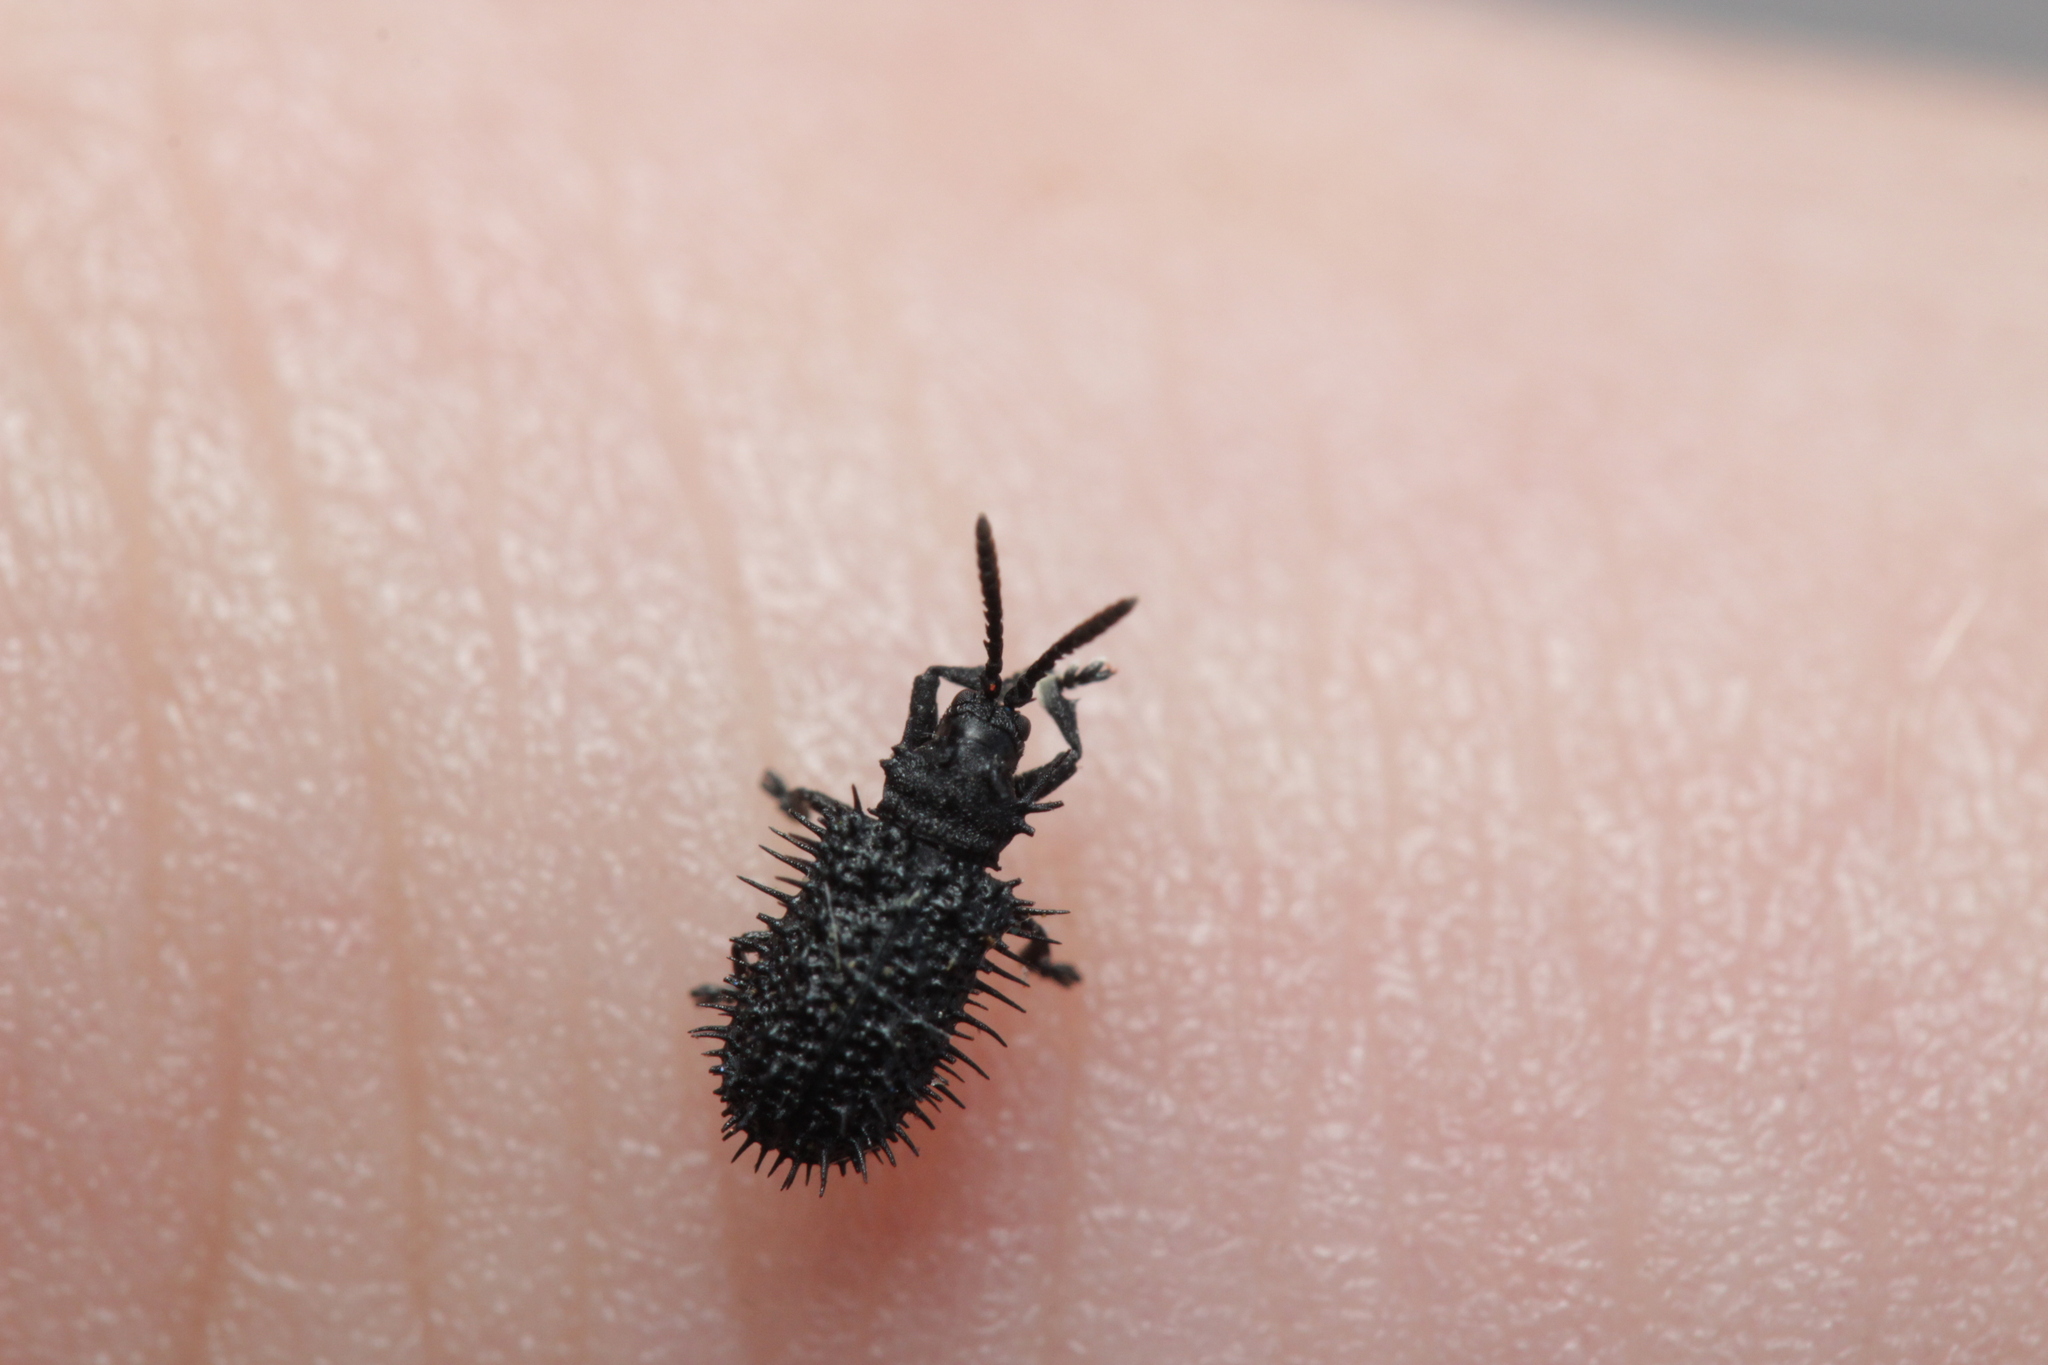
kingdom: Animalia
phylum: Arthropoda
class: Insecta
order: Coleoptera
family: Chrysomelidae
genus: Hispa
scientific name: Hispa atra
